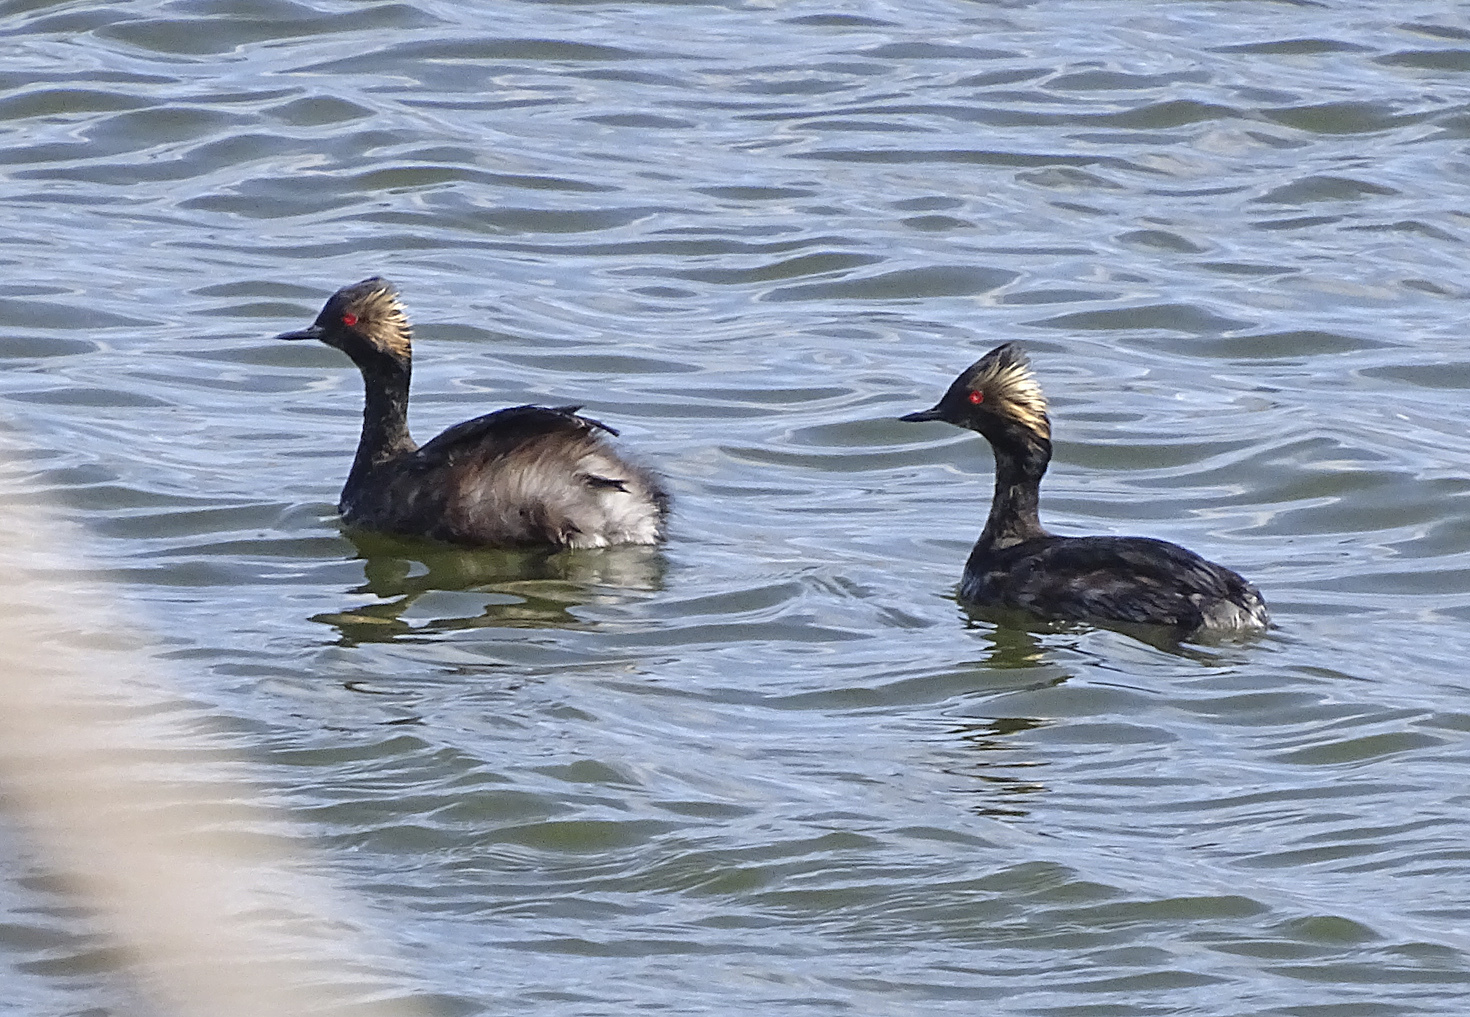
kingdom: Animalia
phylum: Chordata
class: Aves
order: Podicipediformes
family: Podicipedidae
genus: Podiceps
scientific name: Podiceps nigricollis
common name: Black-necked grebe
